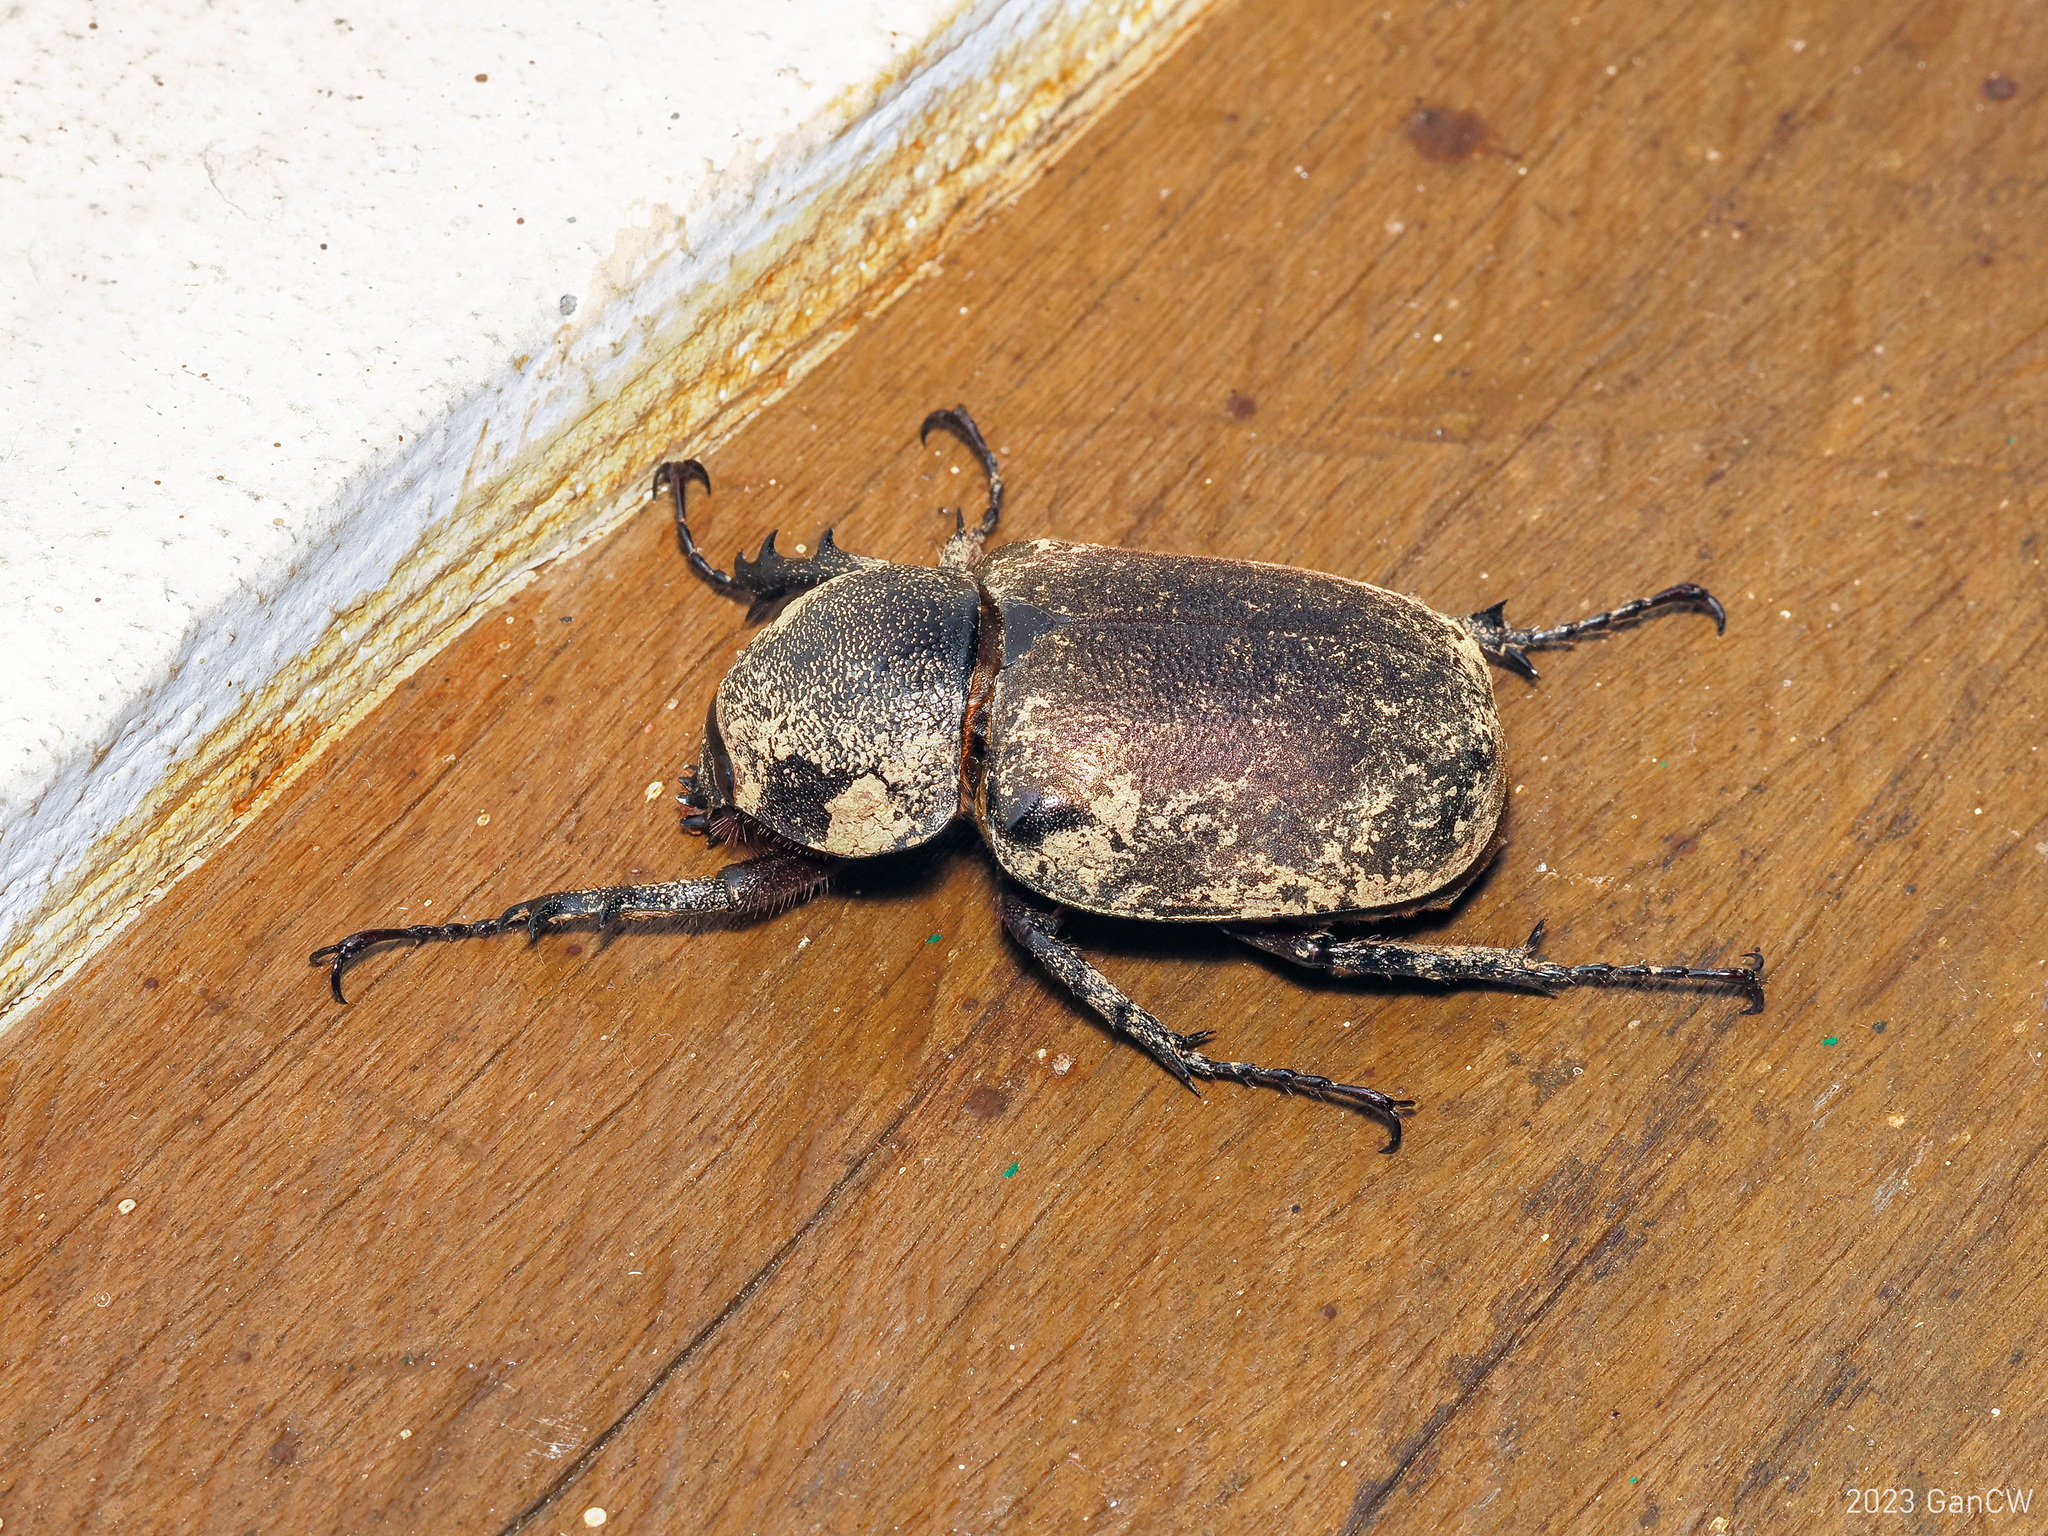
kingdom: Animalia
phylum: Arthropoda
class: Insecta
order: Coleoptera
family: Scarabaeidae
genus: Chalcosoma
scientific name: Chalcosoma atlas
